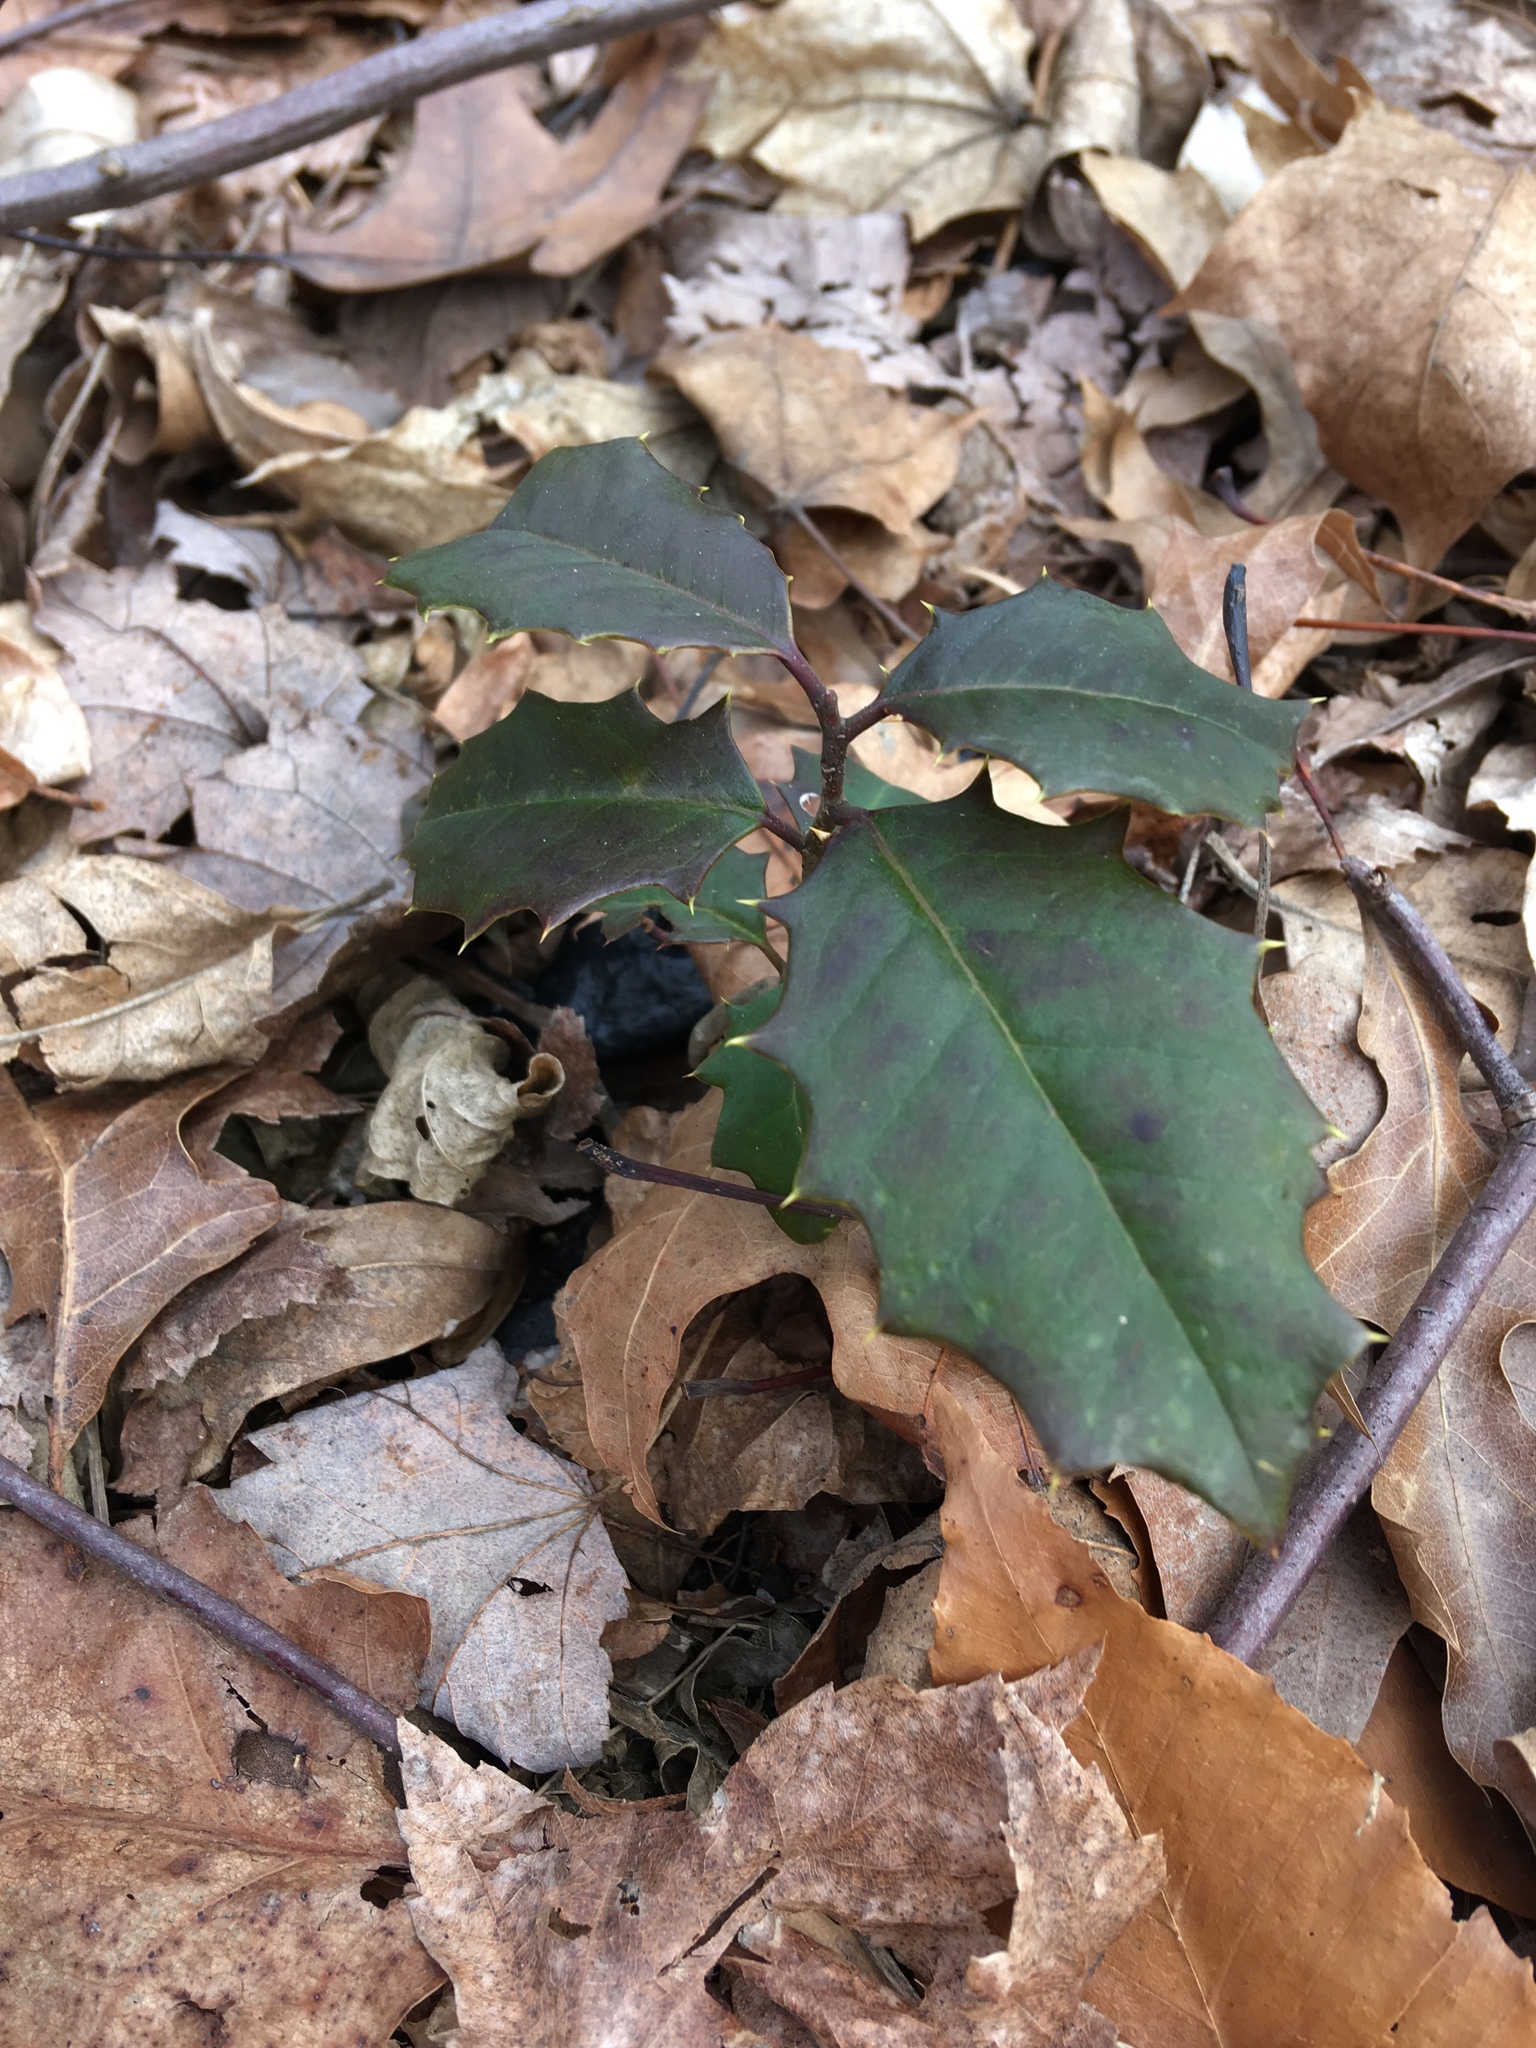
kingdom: Plantae
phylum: Tracheophyta
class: Magnoliopsida
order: Aquifoliales
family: Aquifoliaceae
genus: Ilex
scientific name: Ilex opaca
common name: American holly
